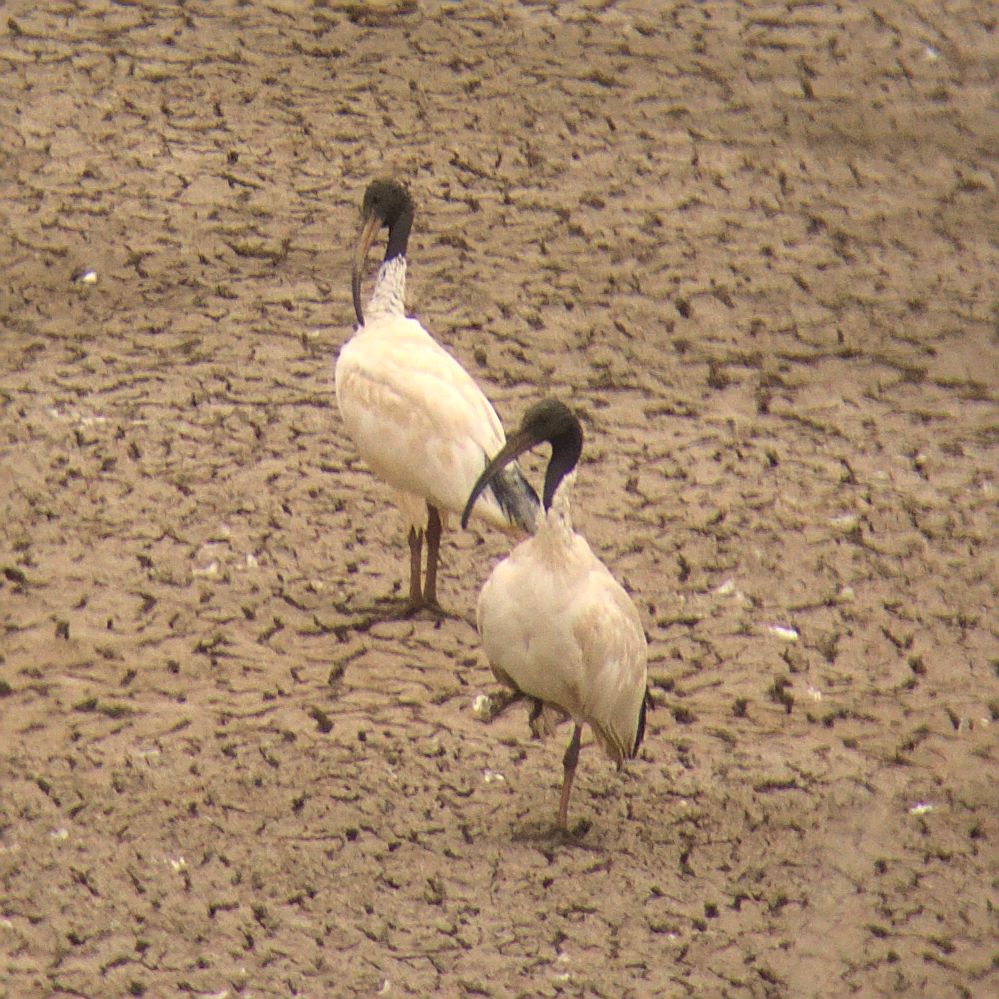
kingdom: Animalia
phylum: Chordata
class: Aves
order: Pelecaniformes
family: Threskiornithidae
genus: Threskiornis
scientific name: Threskiornis molucca
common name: Australian white ibis
